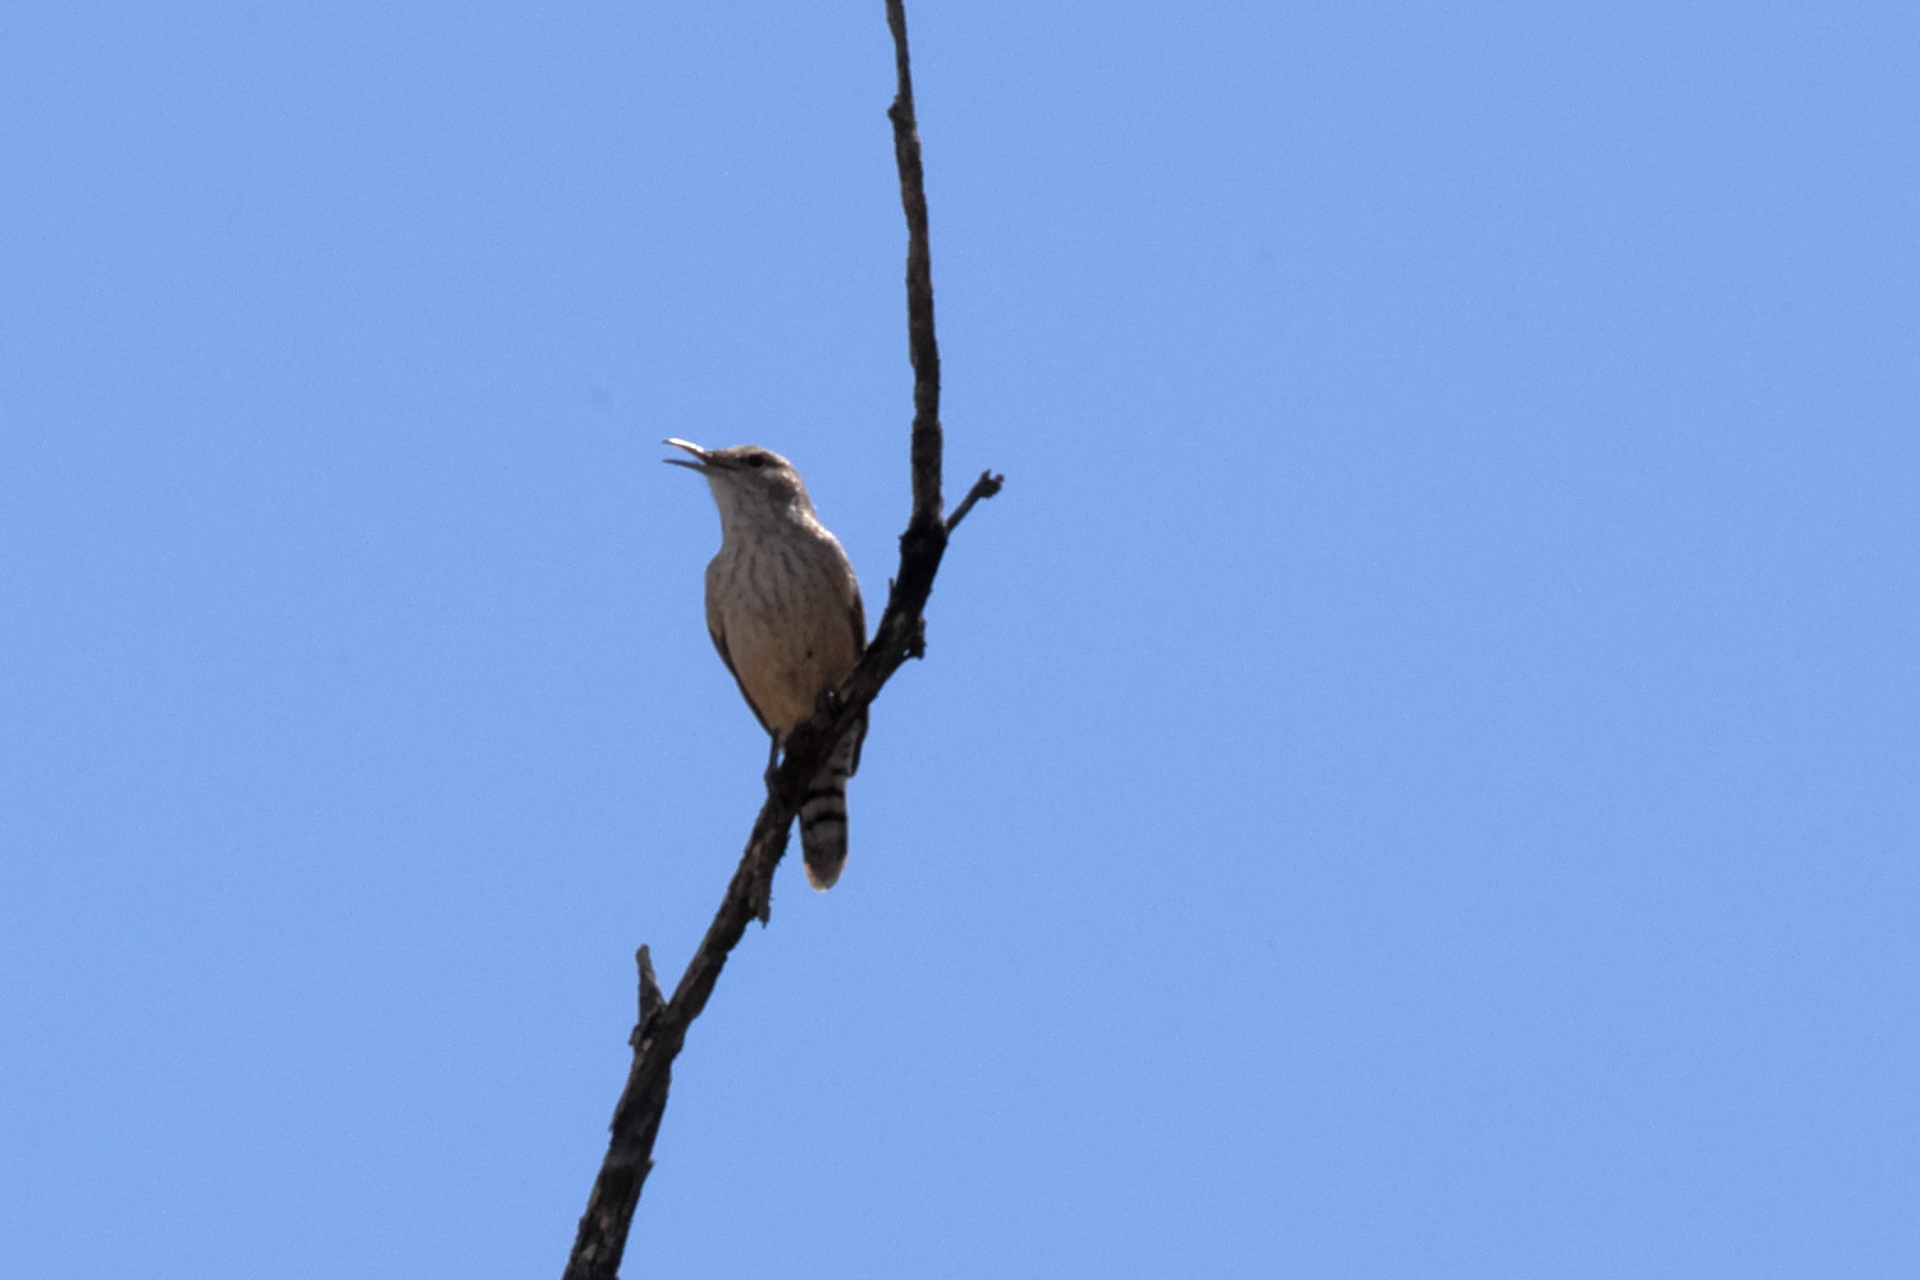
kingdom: Animalia
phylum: Chordata
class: Aves
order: Passeriformes
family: Troglodytidae
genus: Salpinctes
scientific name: Salpinctes obsoletus
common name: Rock wren
